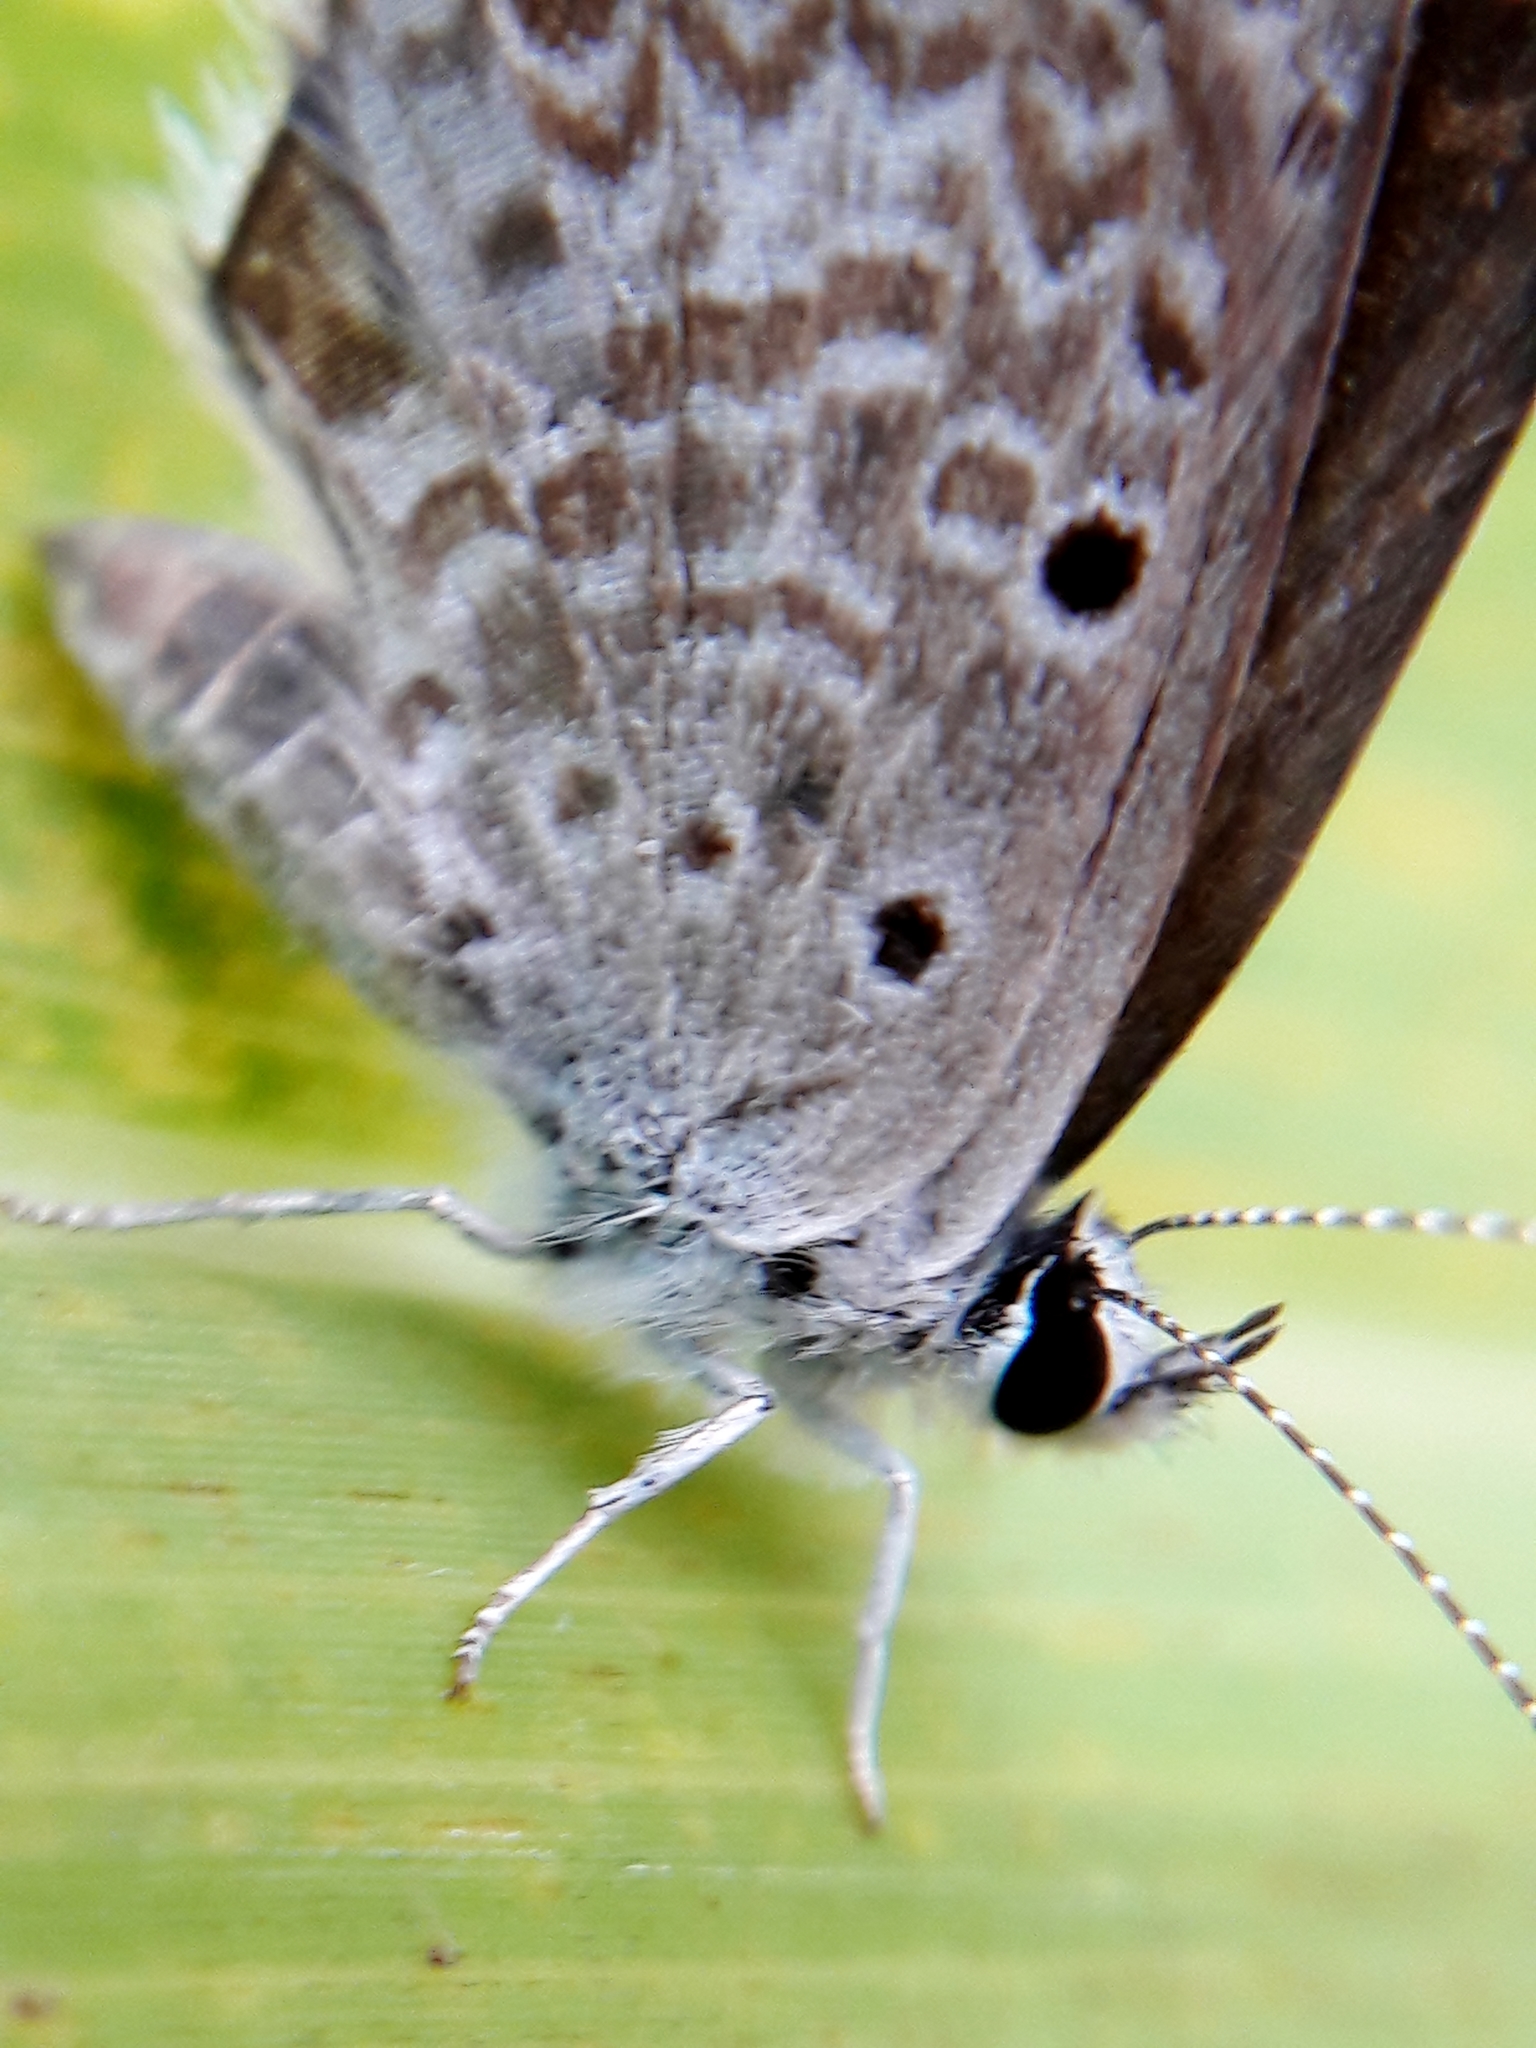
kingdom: Animalia
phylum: Arthropoda
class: Insecta
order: Lepidoptera
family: Lycaenidae
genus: Hemiargus
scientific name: Hemiargus hanno
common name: Common blue
